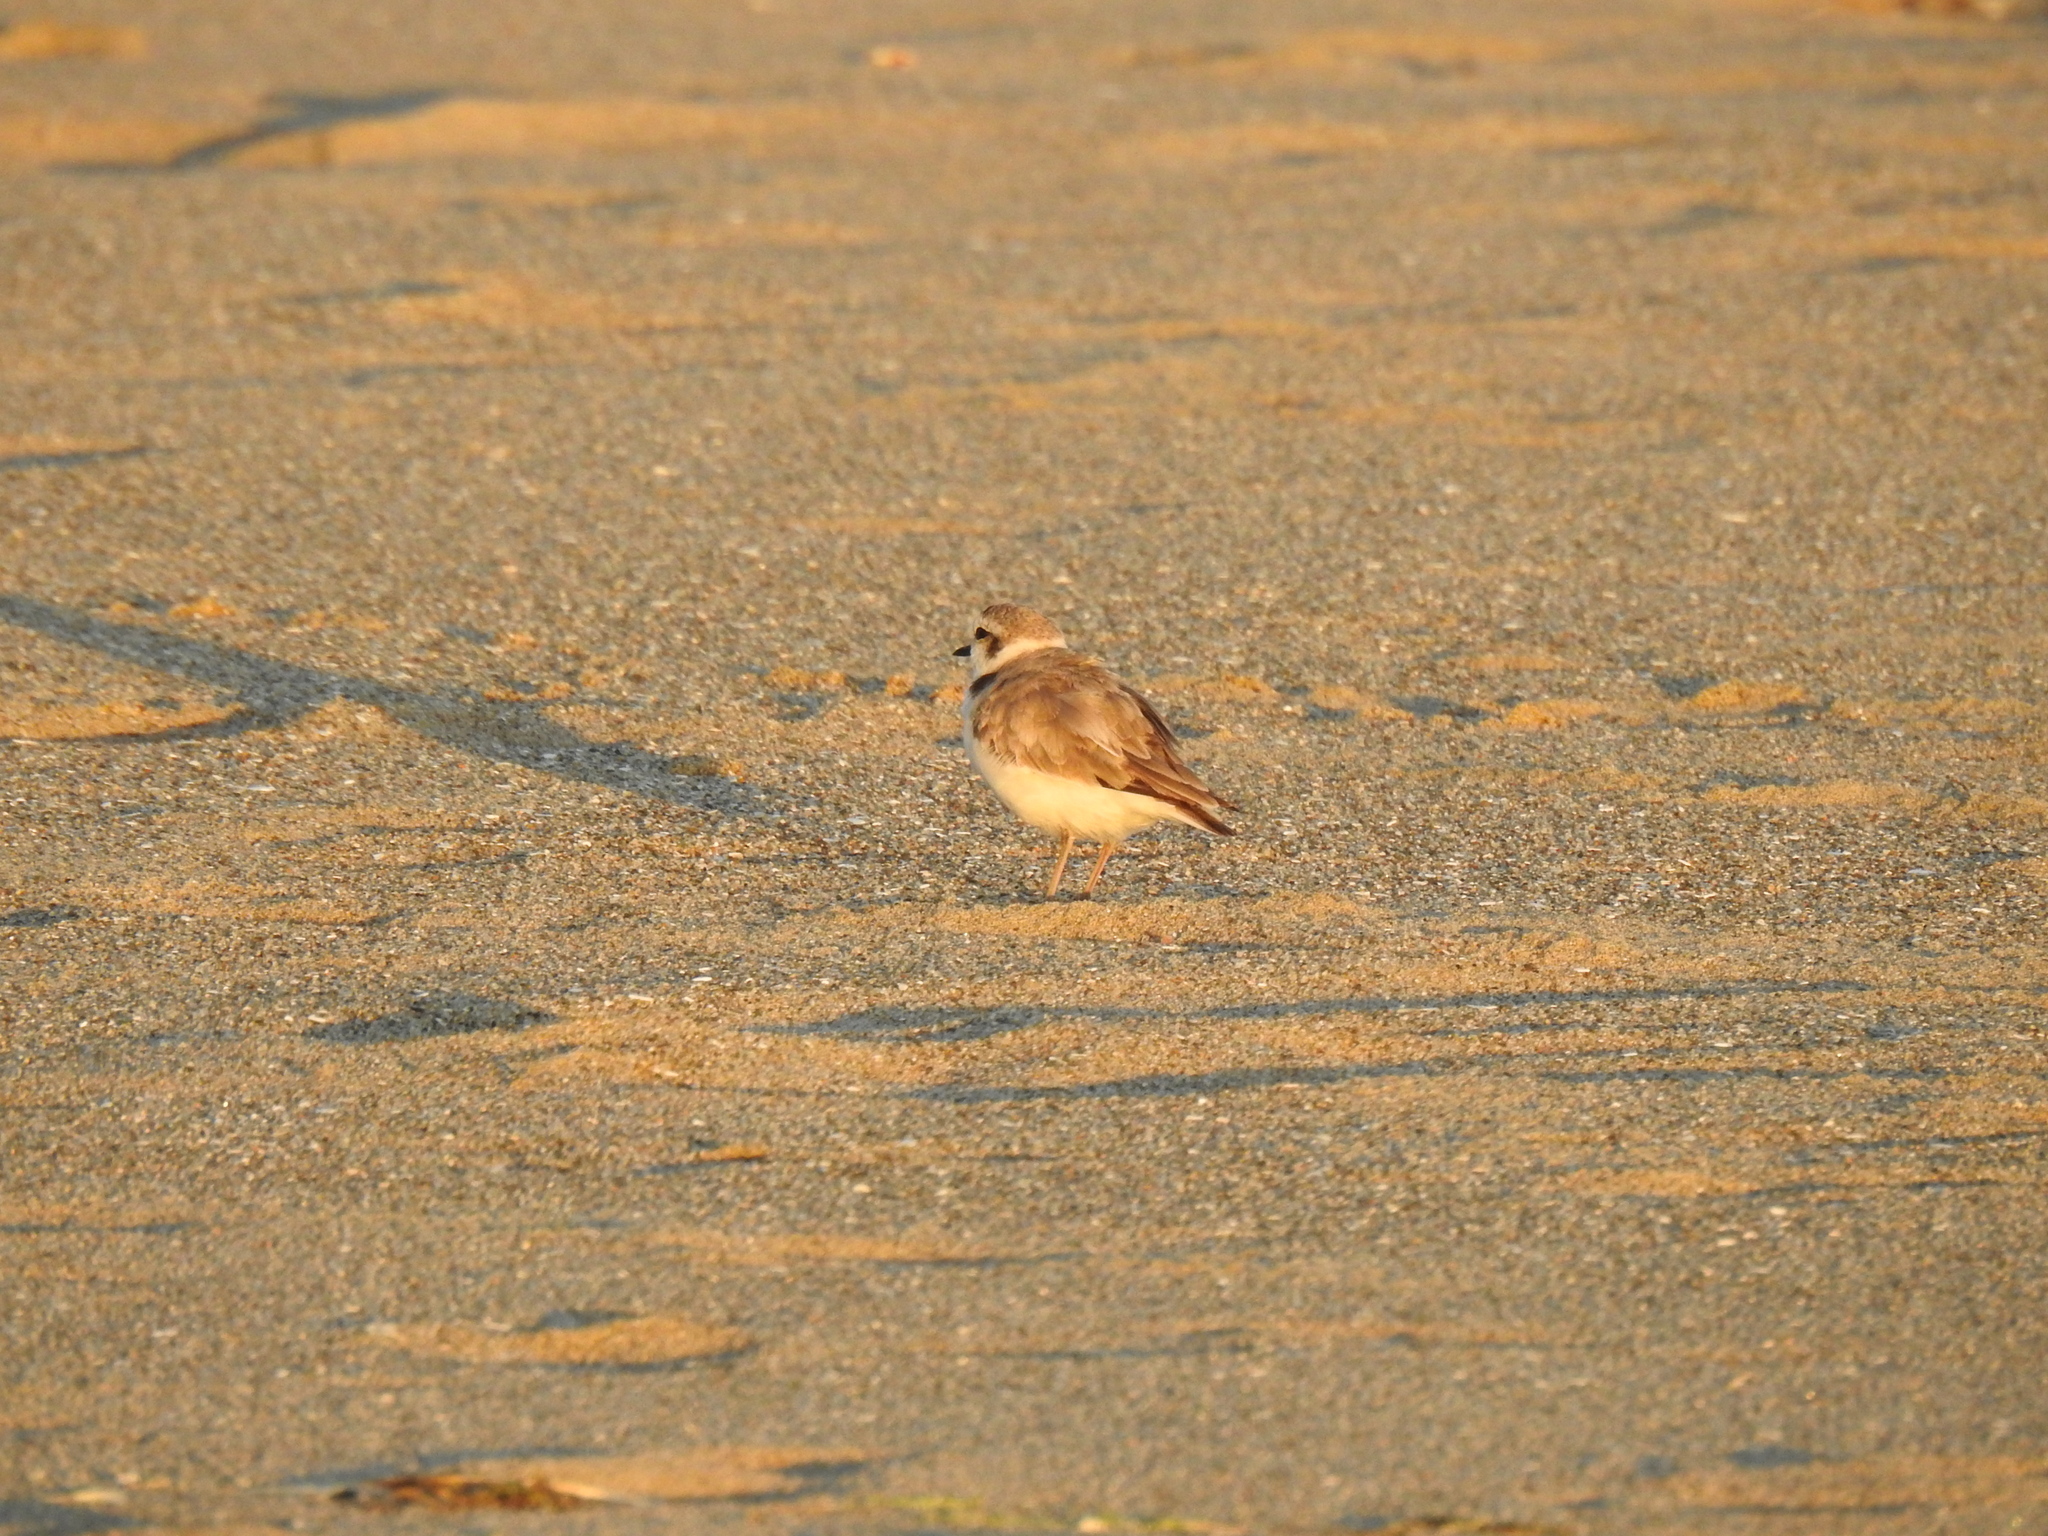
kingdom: Animalia
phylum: Chordata
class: Aves
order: Charadriiformes
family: Charadriidae
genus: Anarhynchus
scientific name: Anarhynchus
